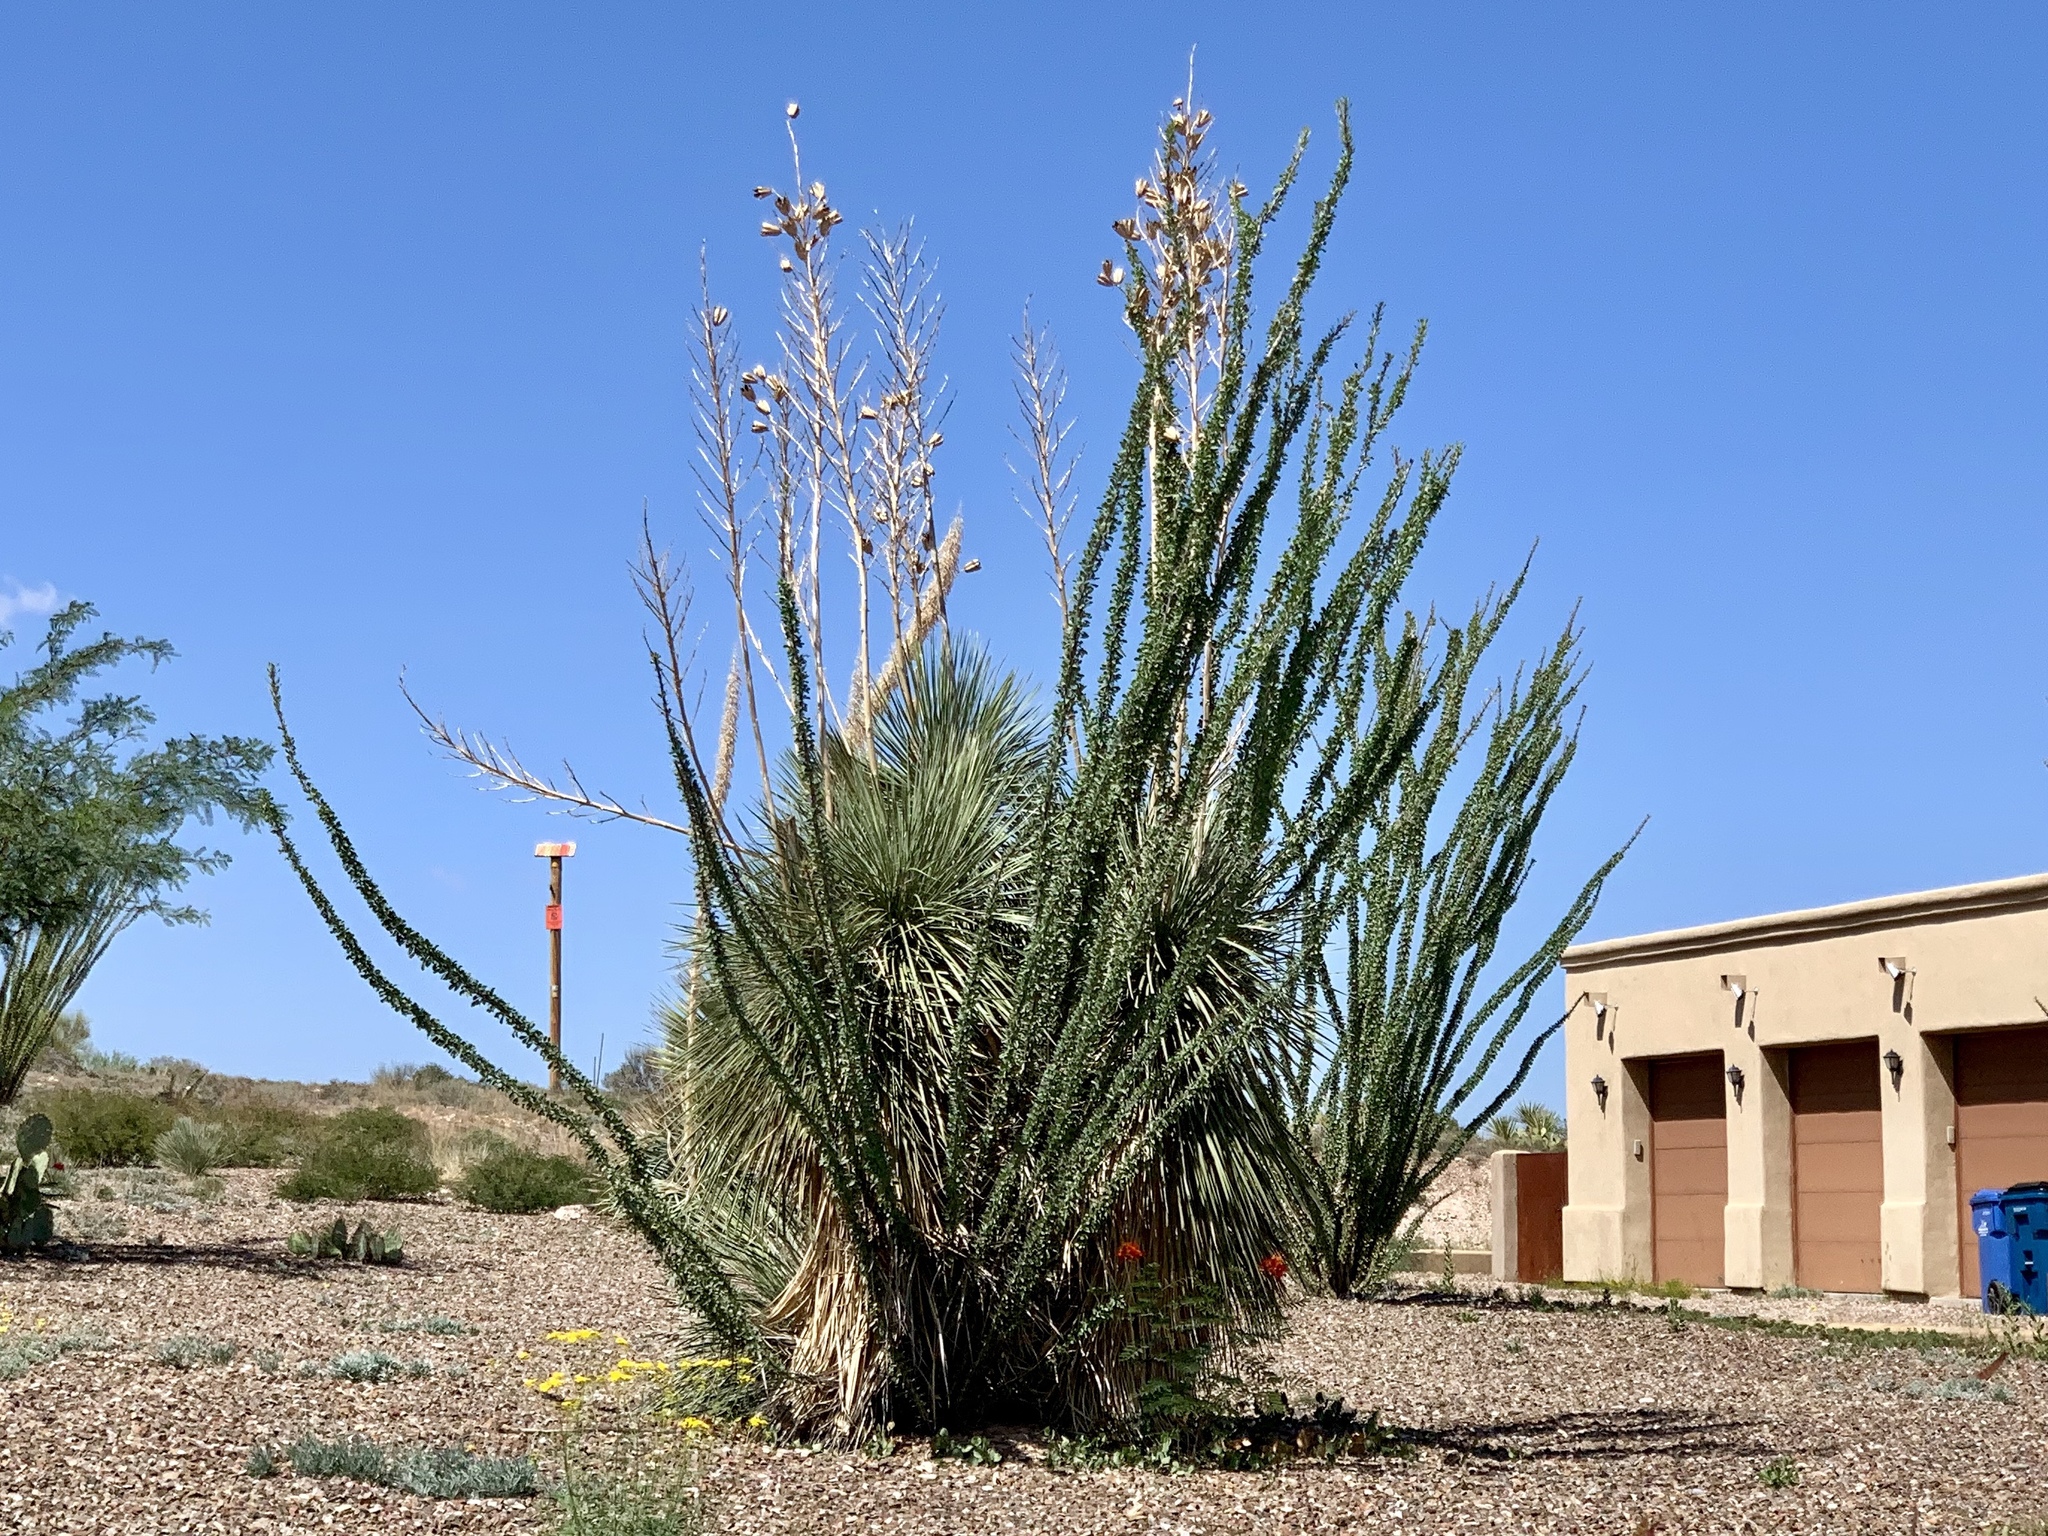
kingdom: Plantae
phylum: Tracheophyta
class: Liliopsida
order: Asparagales
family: Asparagaceae
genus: Yucca
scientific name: Yucca elata
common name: Palmella
